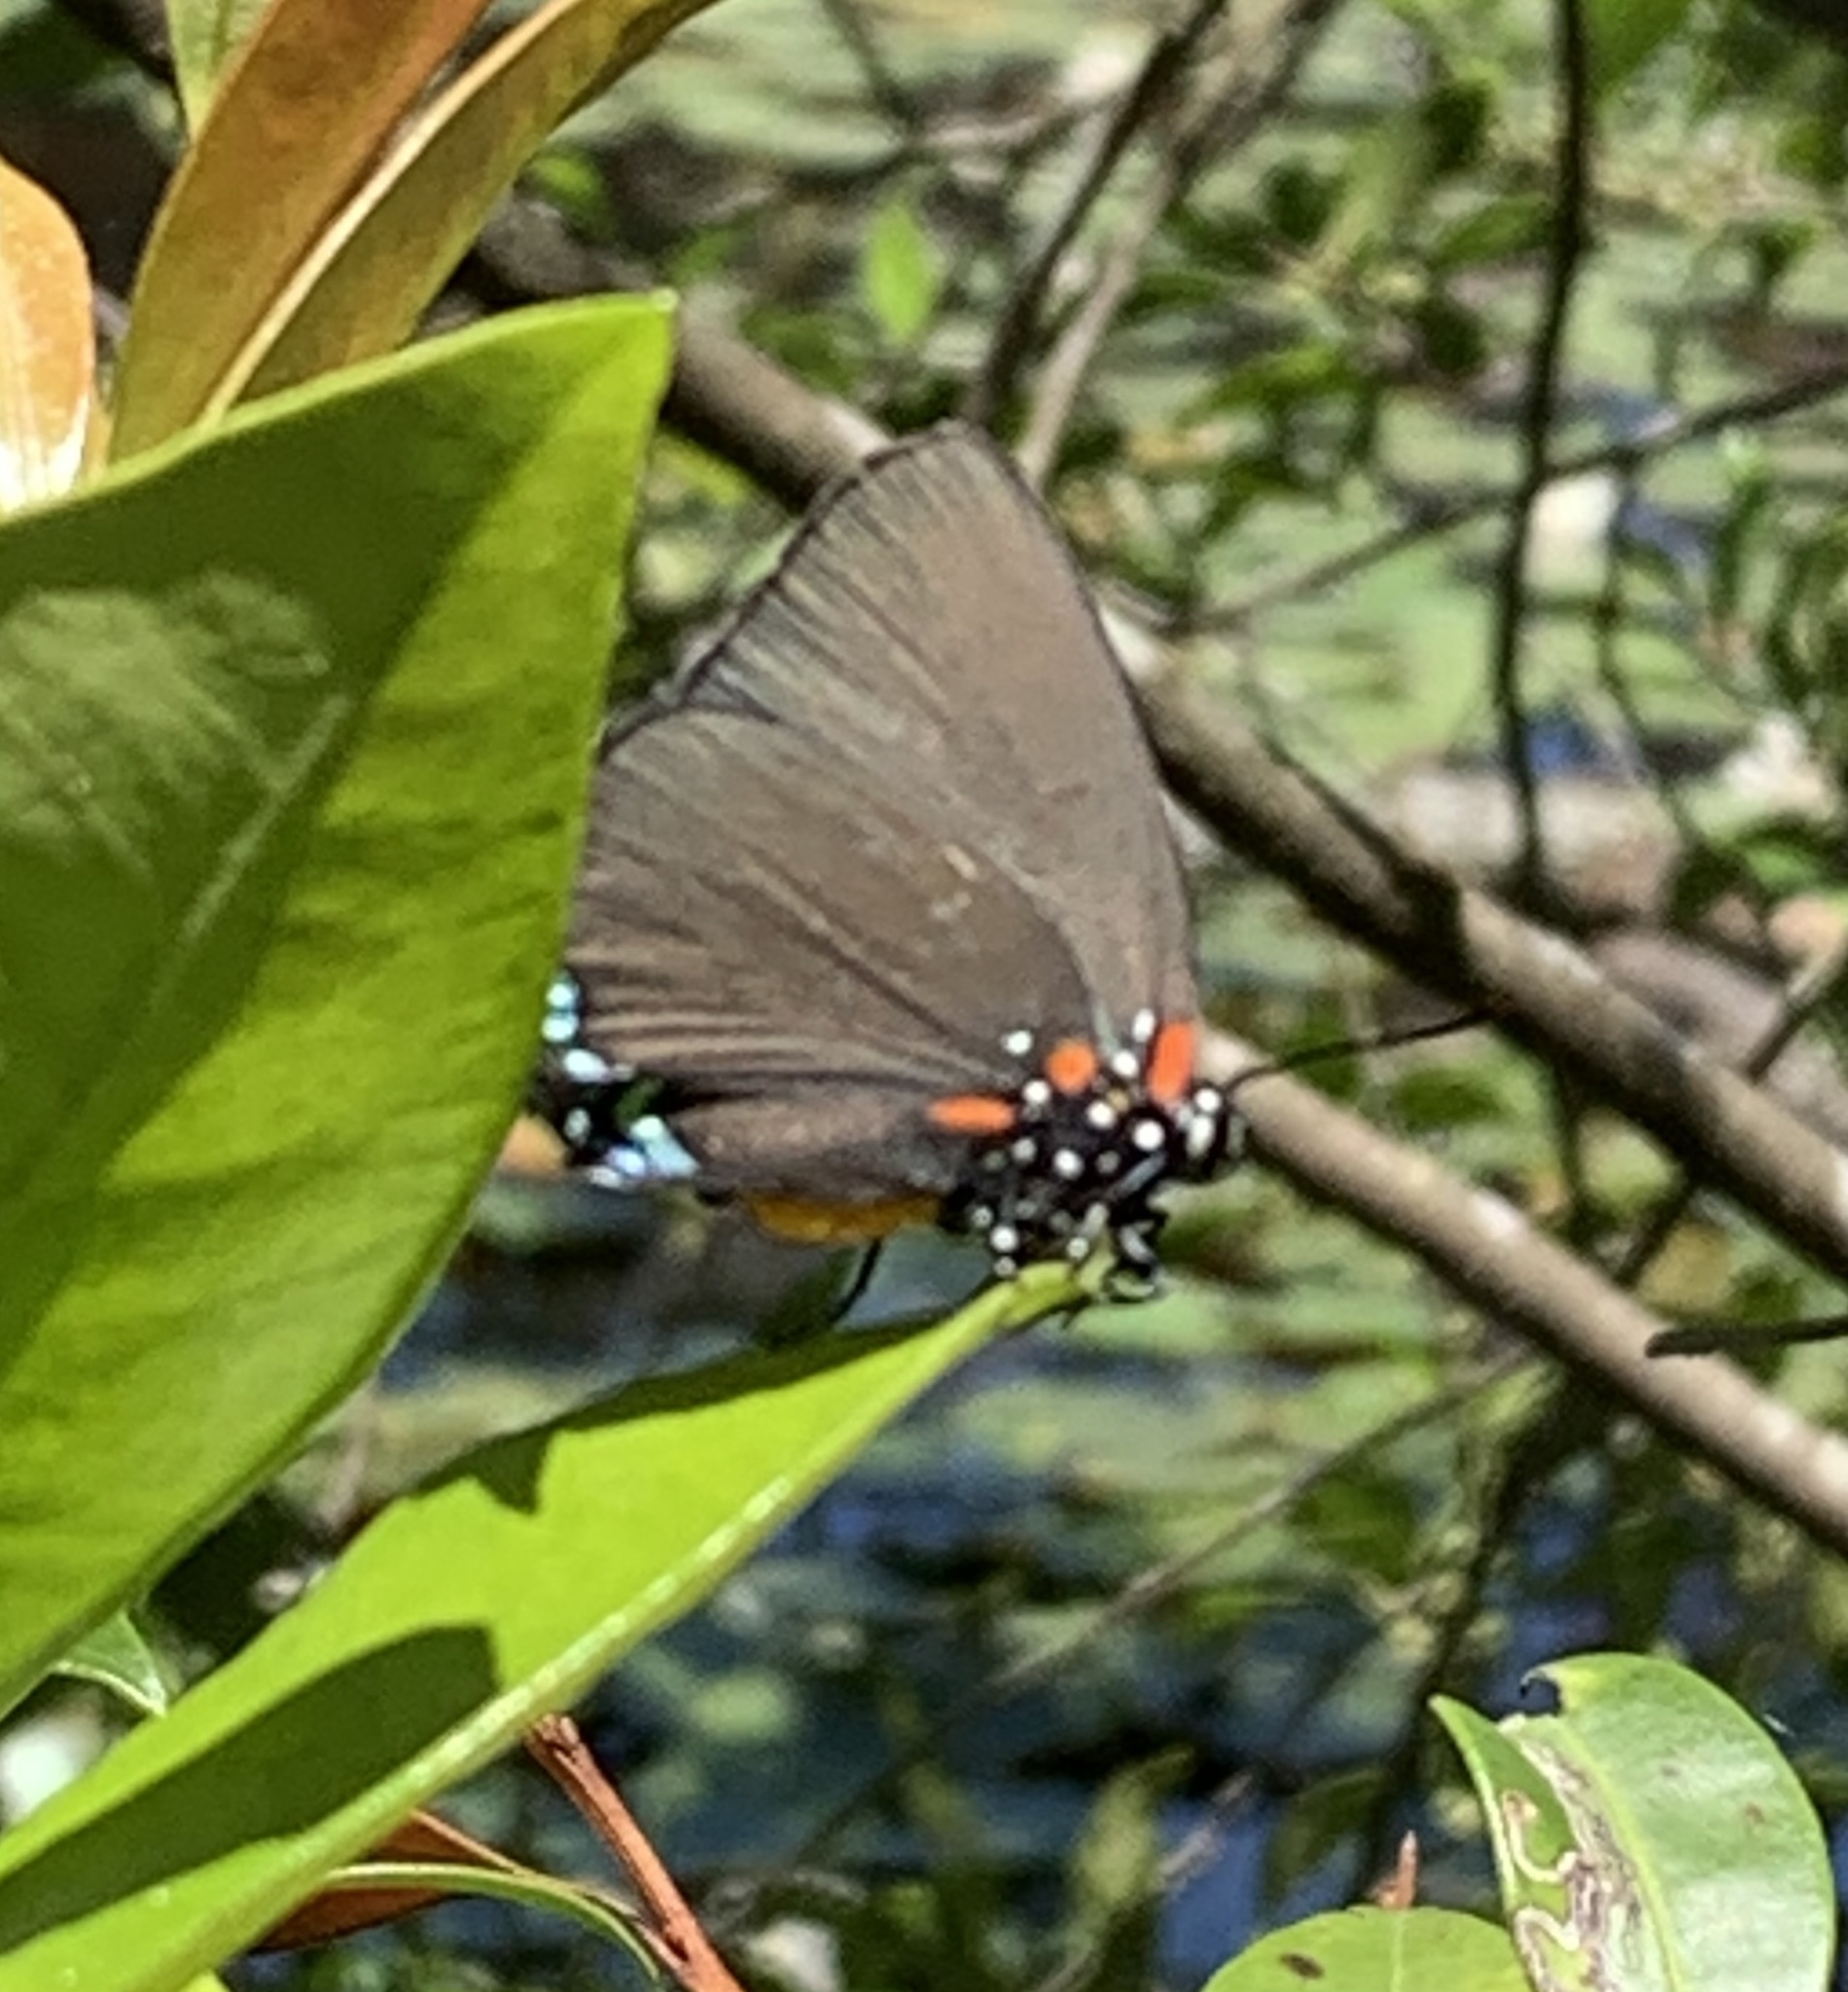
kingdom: Animalia
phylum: Arthropoda
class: Insecta
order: Lepidoptera
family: Lycaenidae
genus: Atlides
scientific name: Atlides halesus
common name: Great purple hairstreak
